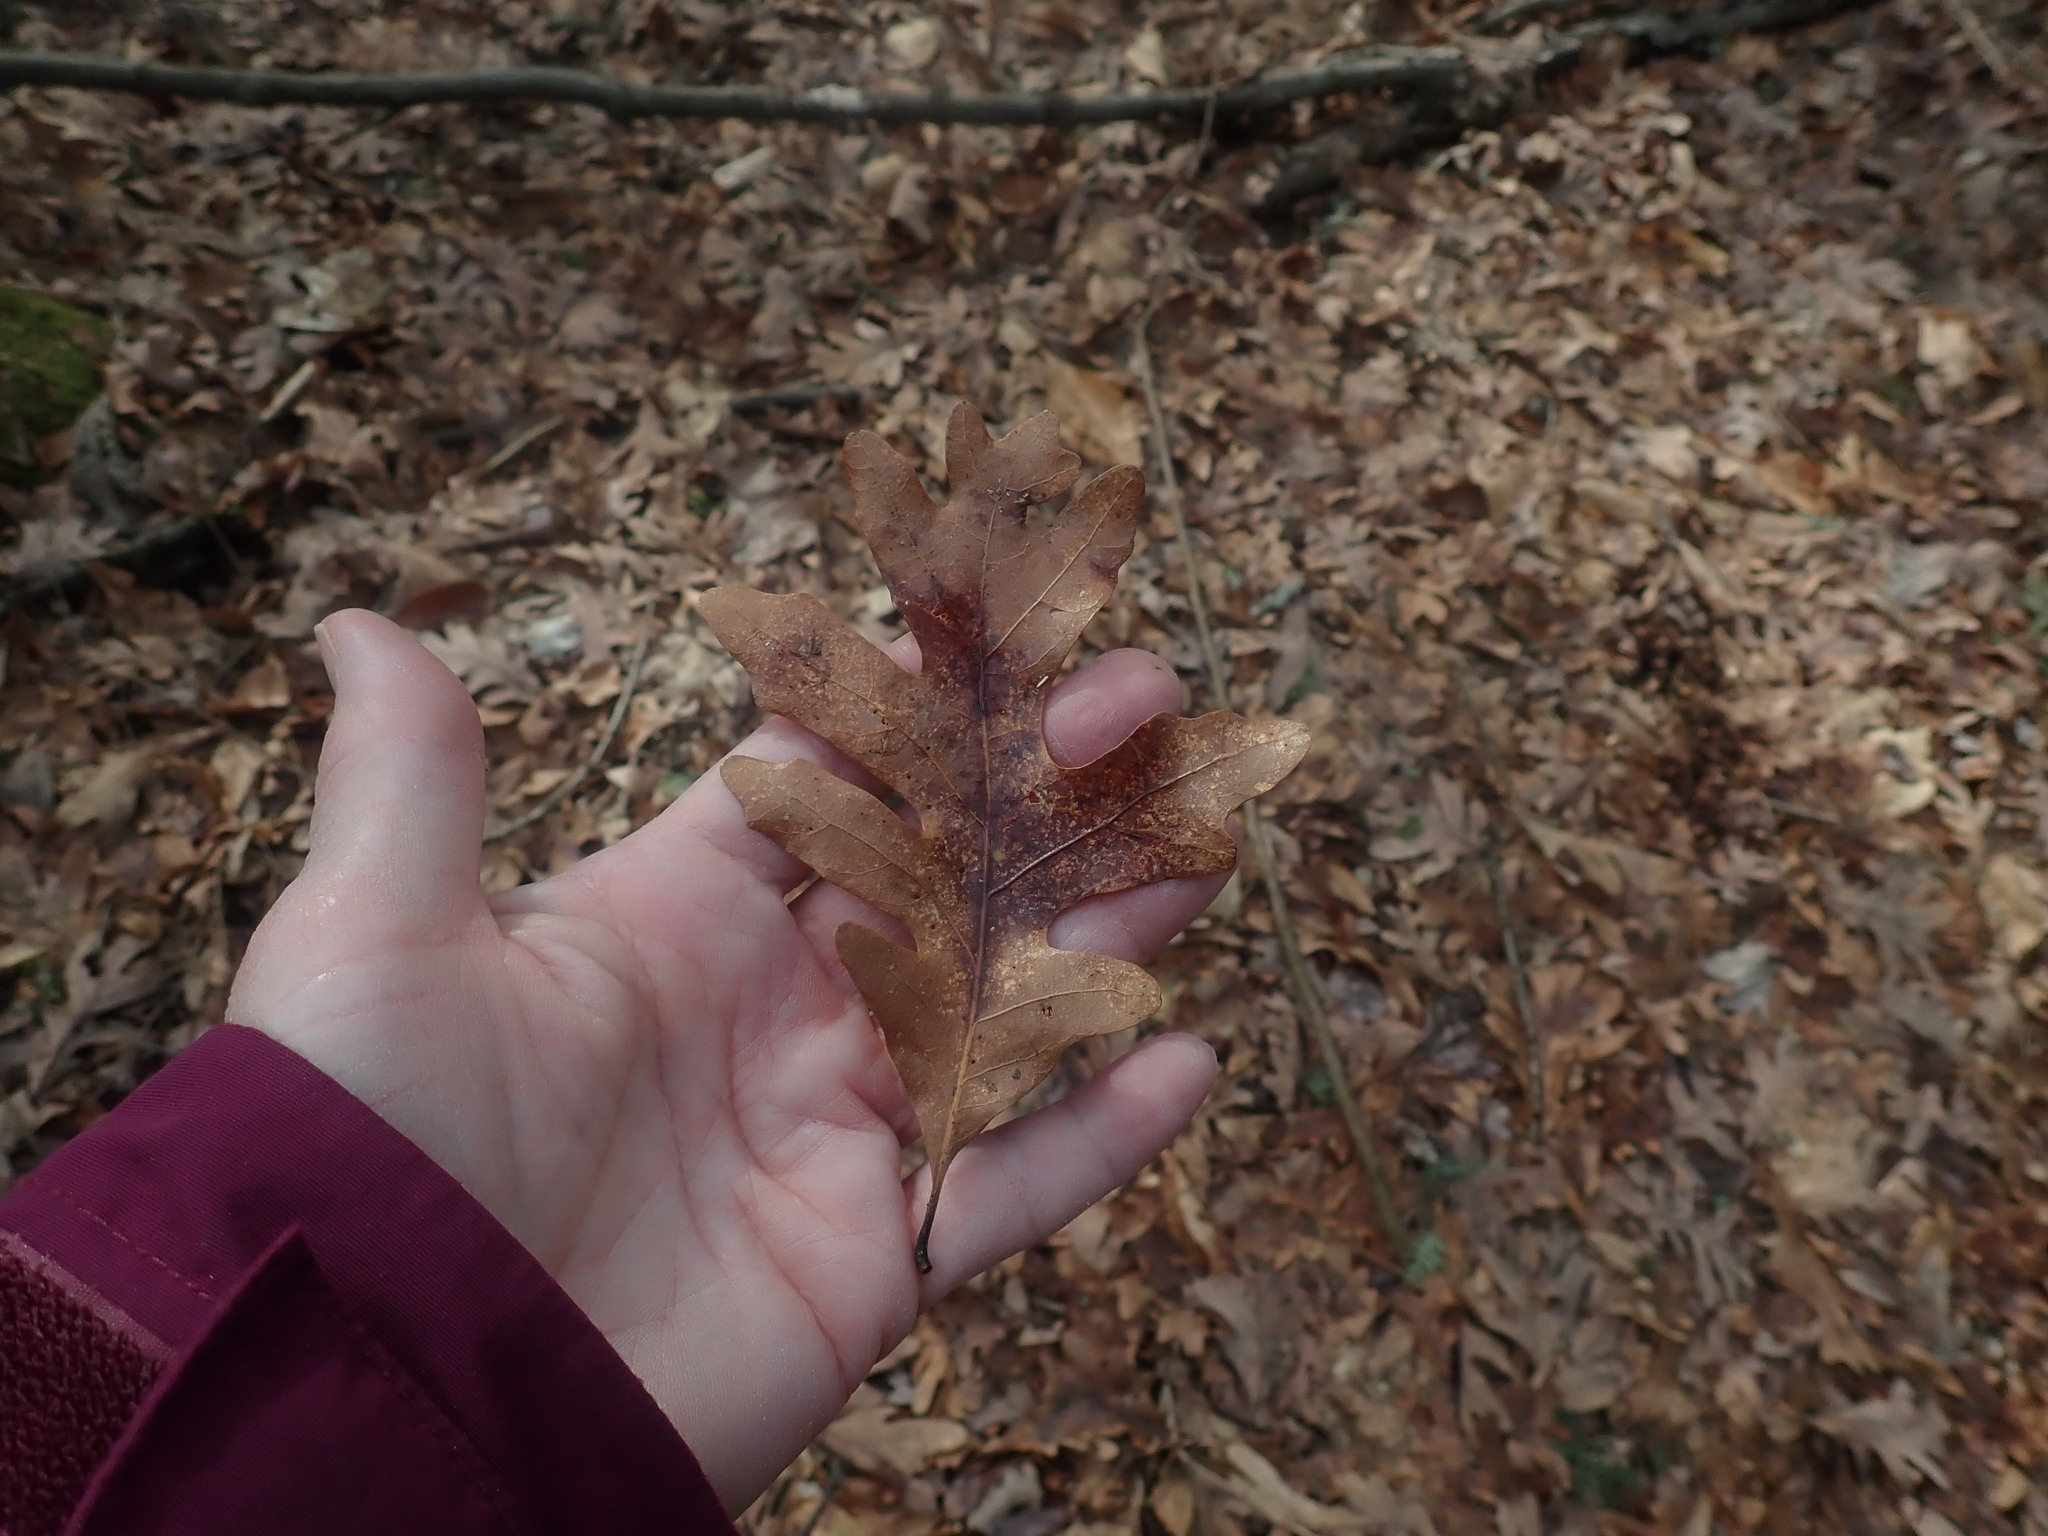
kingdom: Plantae
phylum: Tracheophyta
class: Magnoliopsida
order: Fagales
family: Fagaceae
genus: Quercus
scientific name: Quercus alba
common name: White oak
